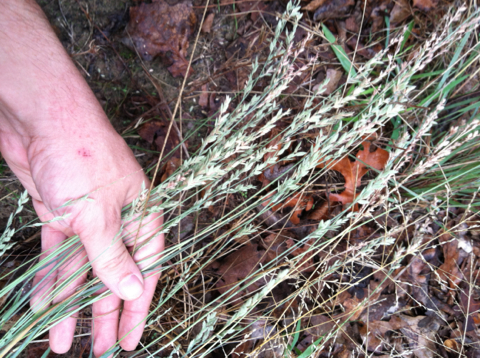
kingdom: Plantae
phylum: Tracheophyta
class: Liliopsida
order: Poales
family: Poaceae
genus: Eragrostis
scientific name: Eragrostis secundiflora
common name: Red love grass
